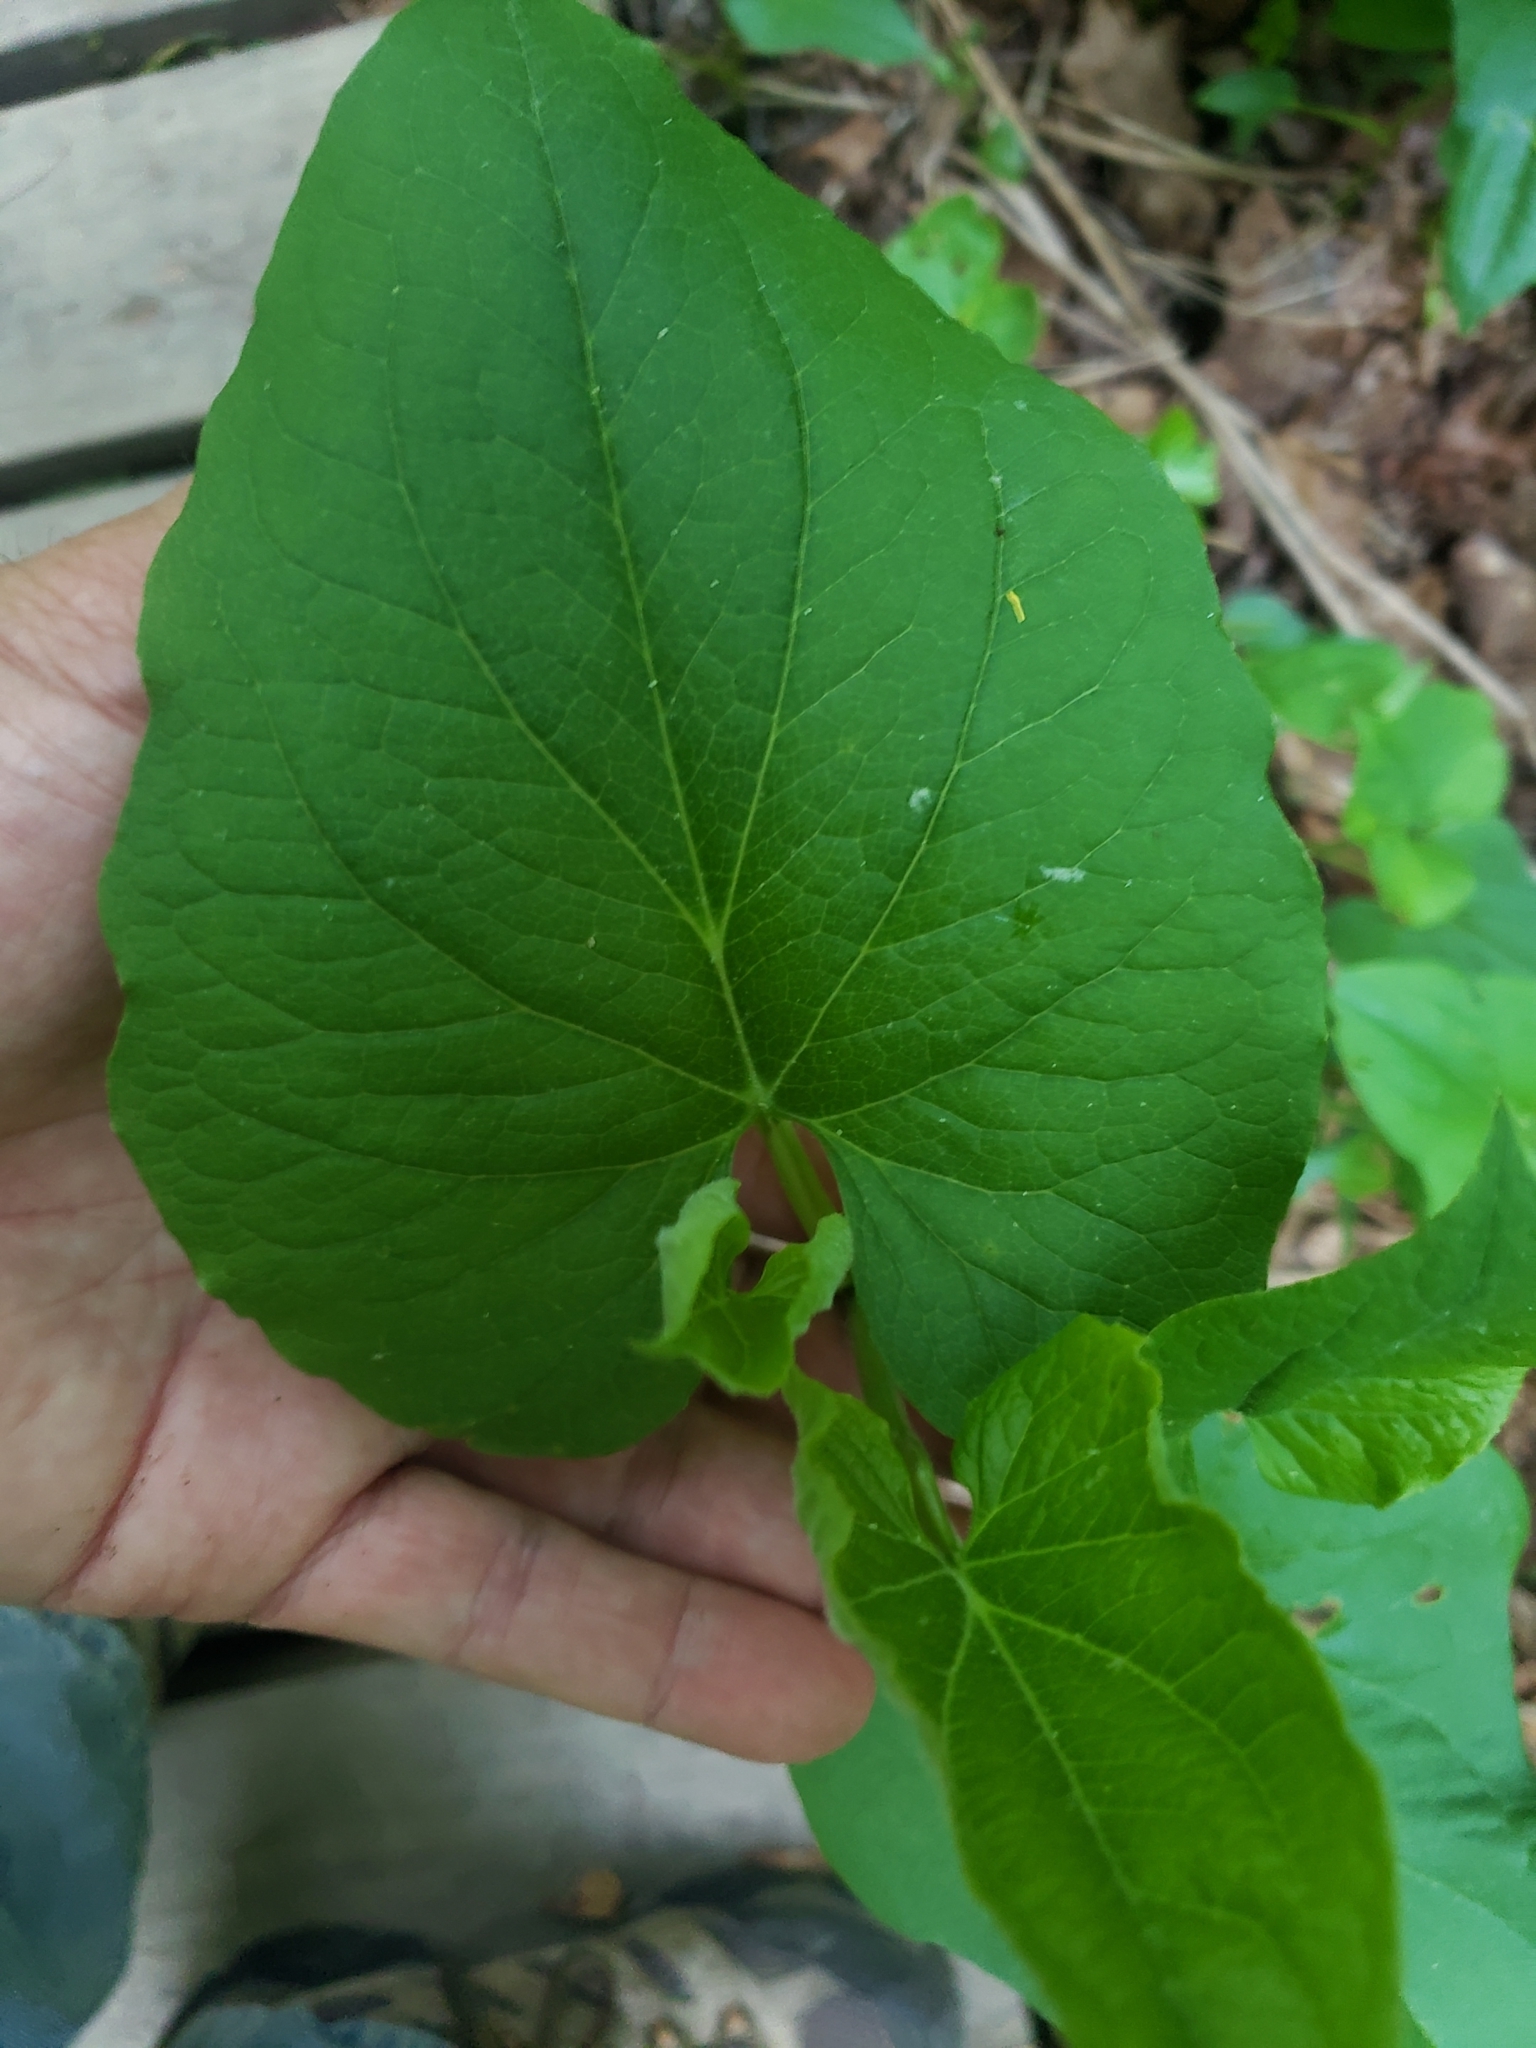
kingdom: Plantae
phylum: Tracheophyta
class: Magnoliopsida
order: Piperales
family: Saururaceae
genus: Saururus
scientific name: Saururus cernuus
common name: Lizard's-tail
